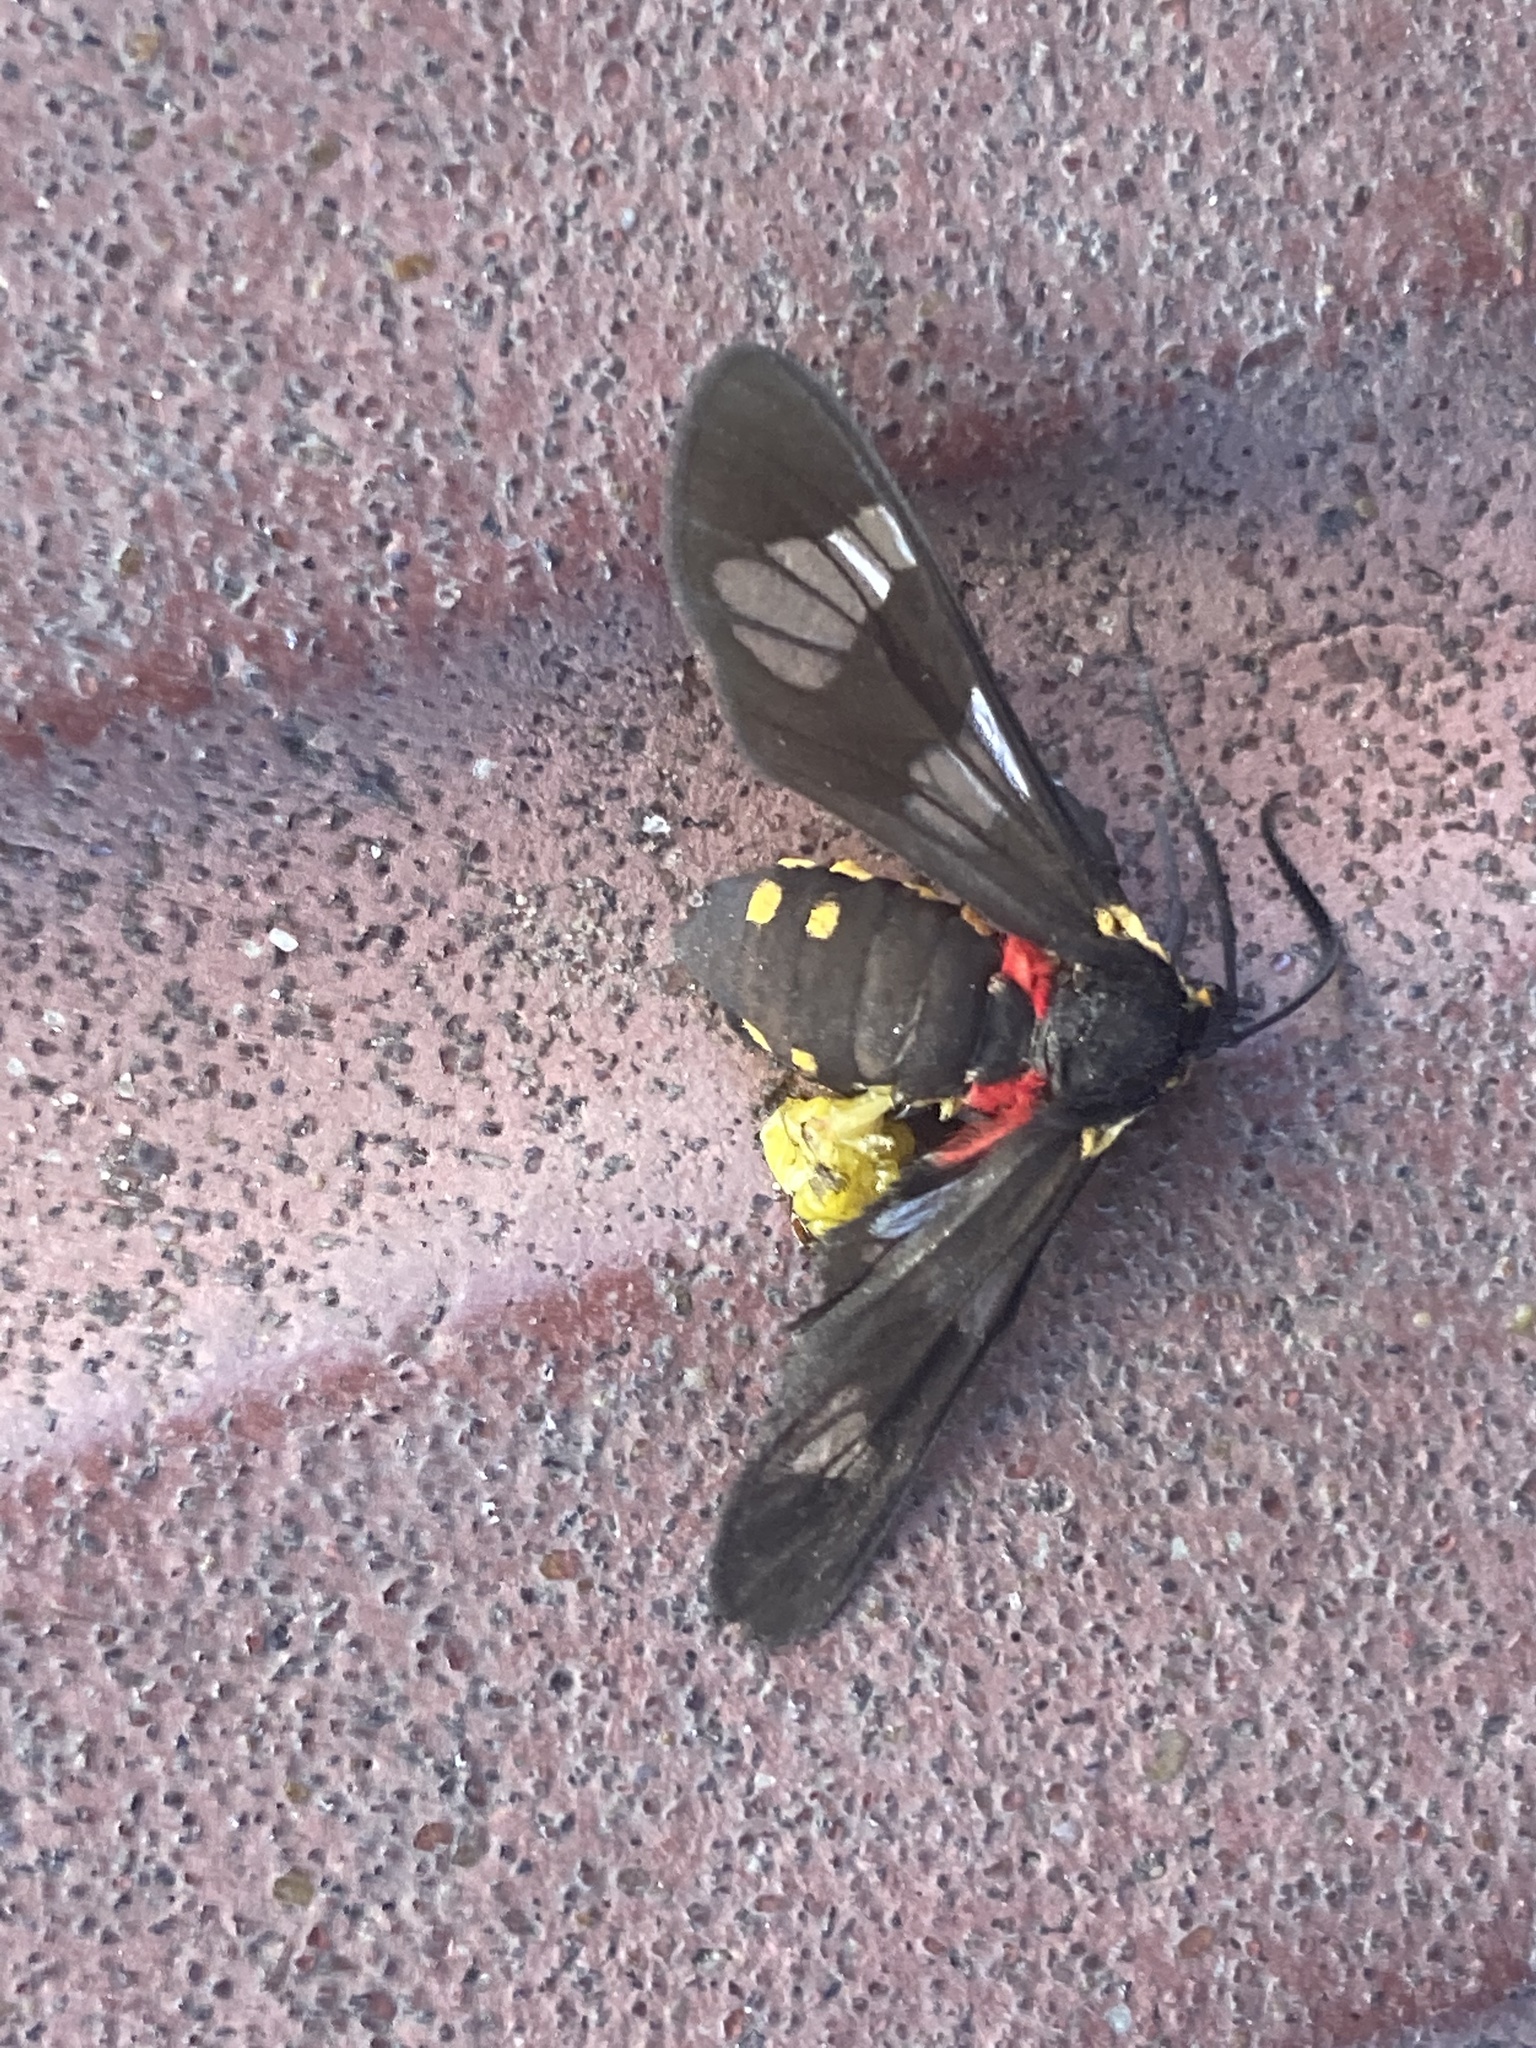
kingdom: Animalia
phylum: Arthropoda
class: Insecta
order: Lepidoptera
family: Erebidae
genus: Eurata
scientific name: Eurata hermione
